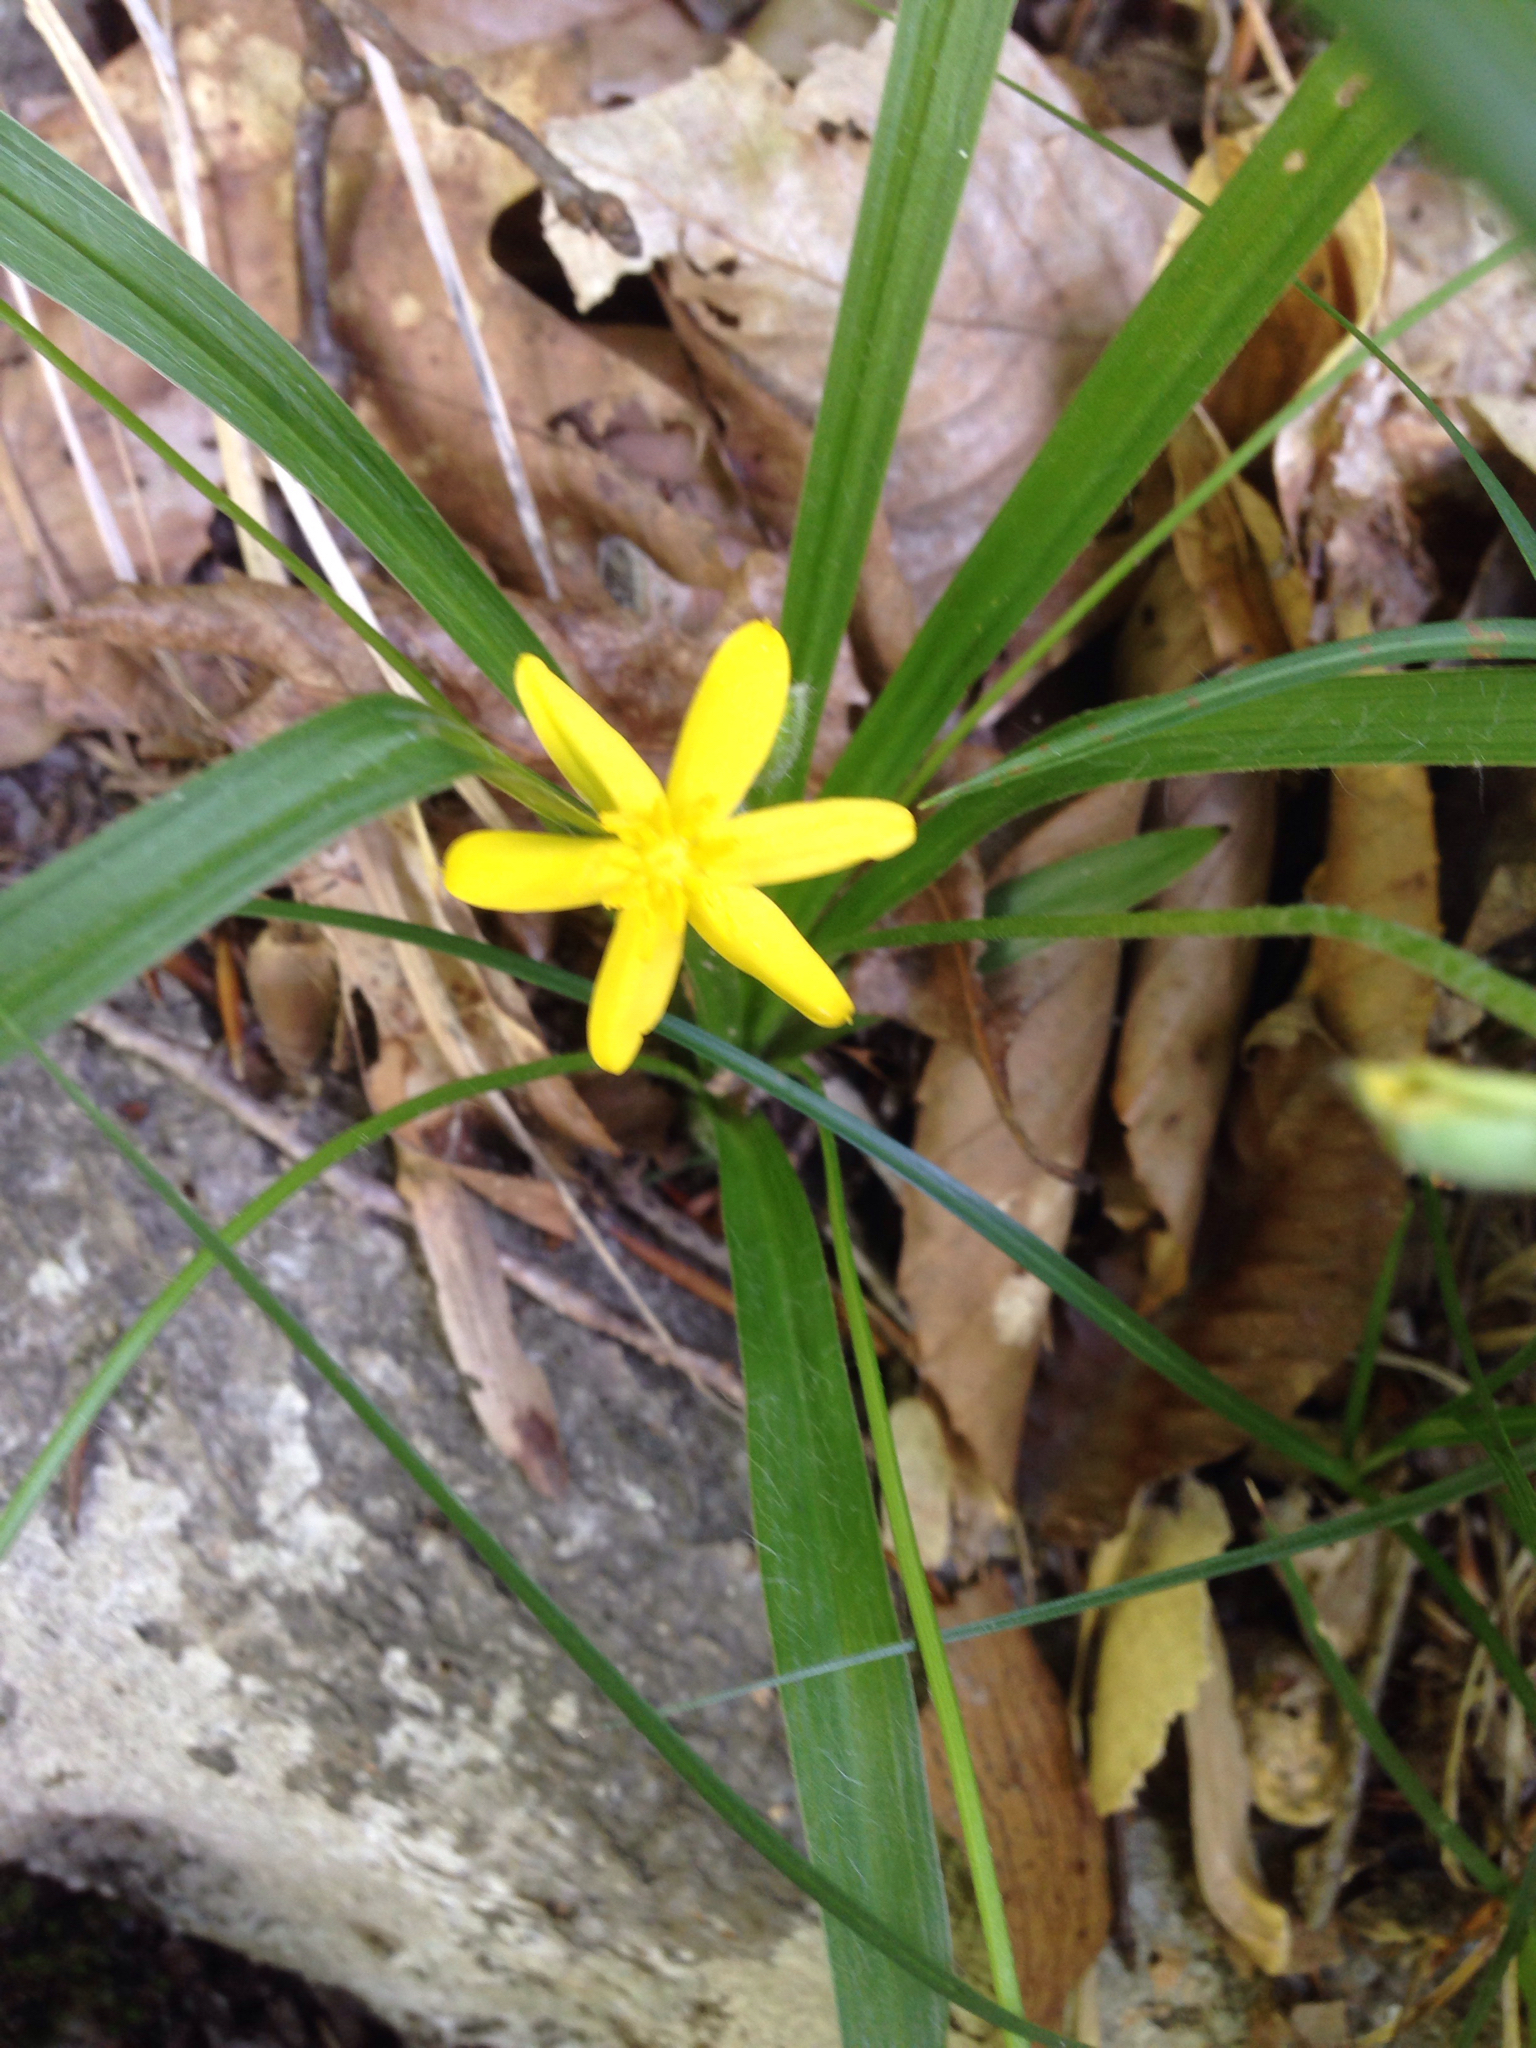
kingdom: Plantae
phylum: Tracheophyta
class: Liliopsida
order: Asparagales
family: Hypoxidaceae
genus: Hypoxis
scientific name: Hypoxis hirsuta
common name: Common goldstar
